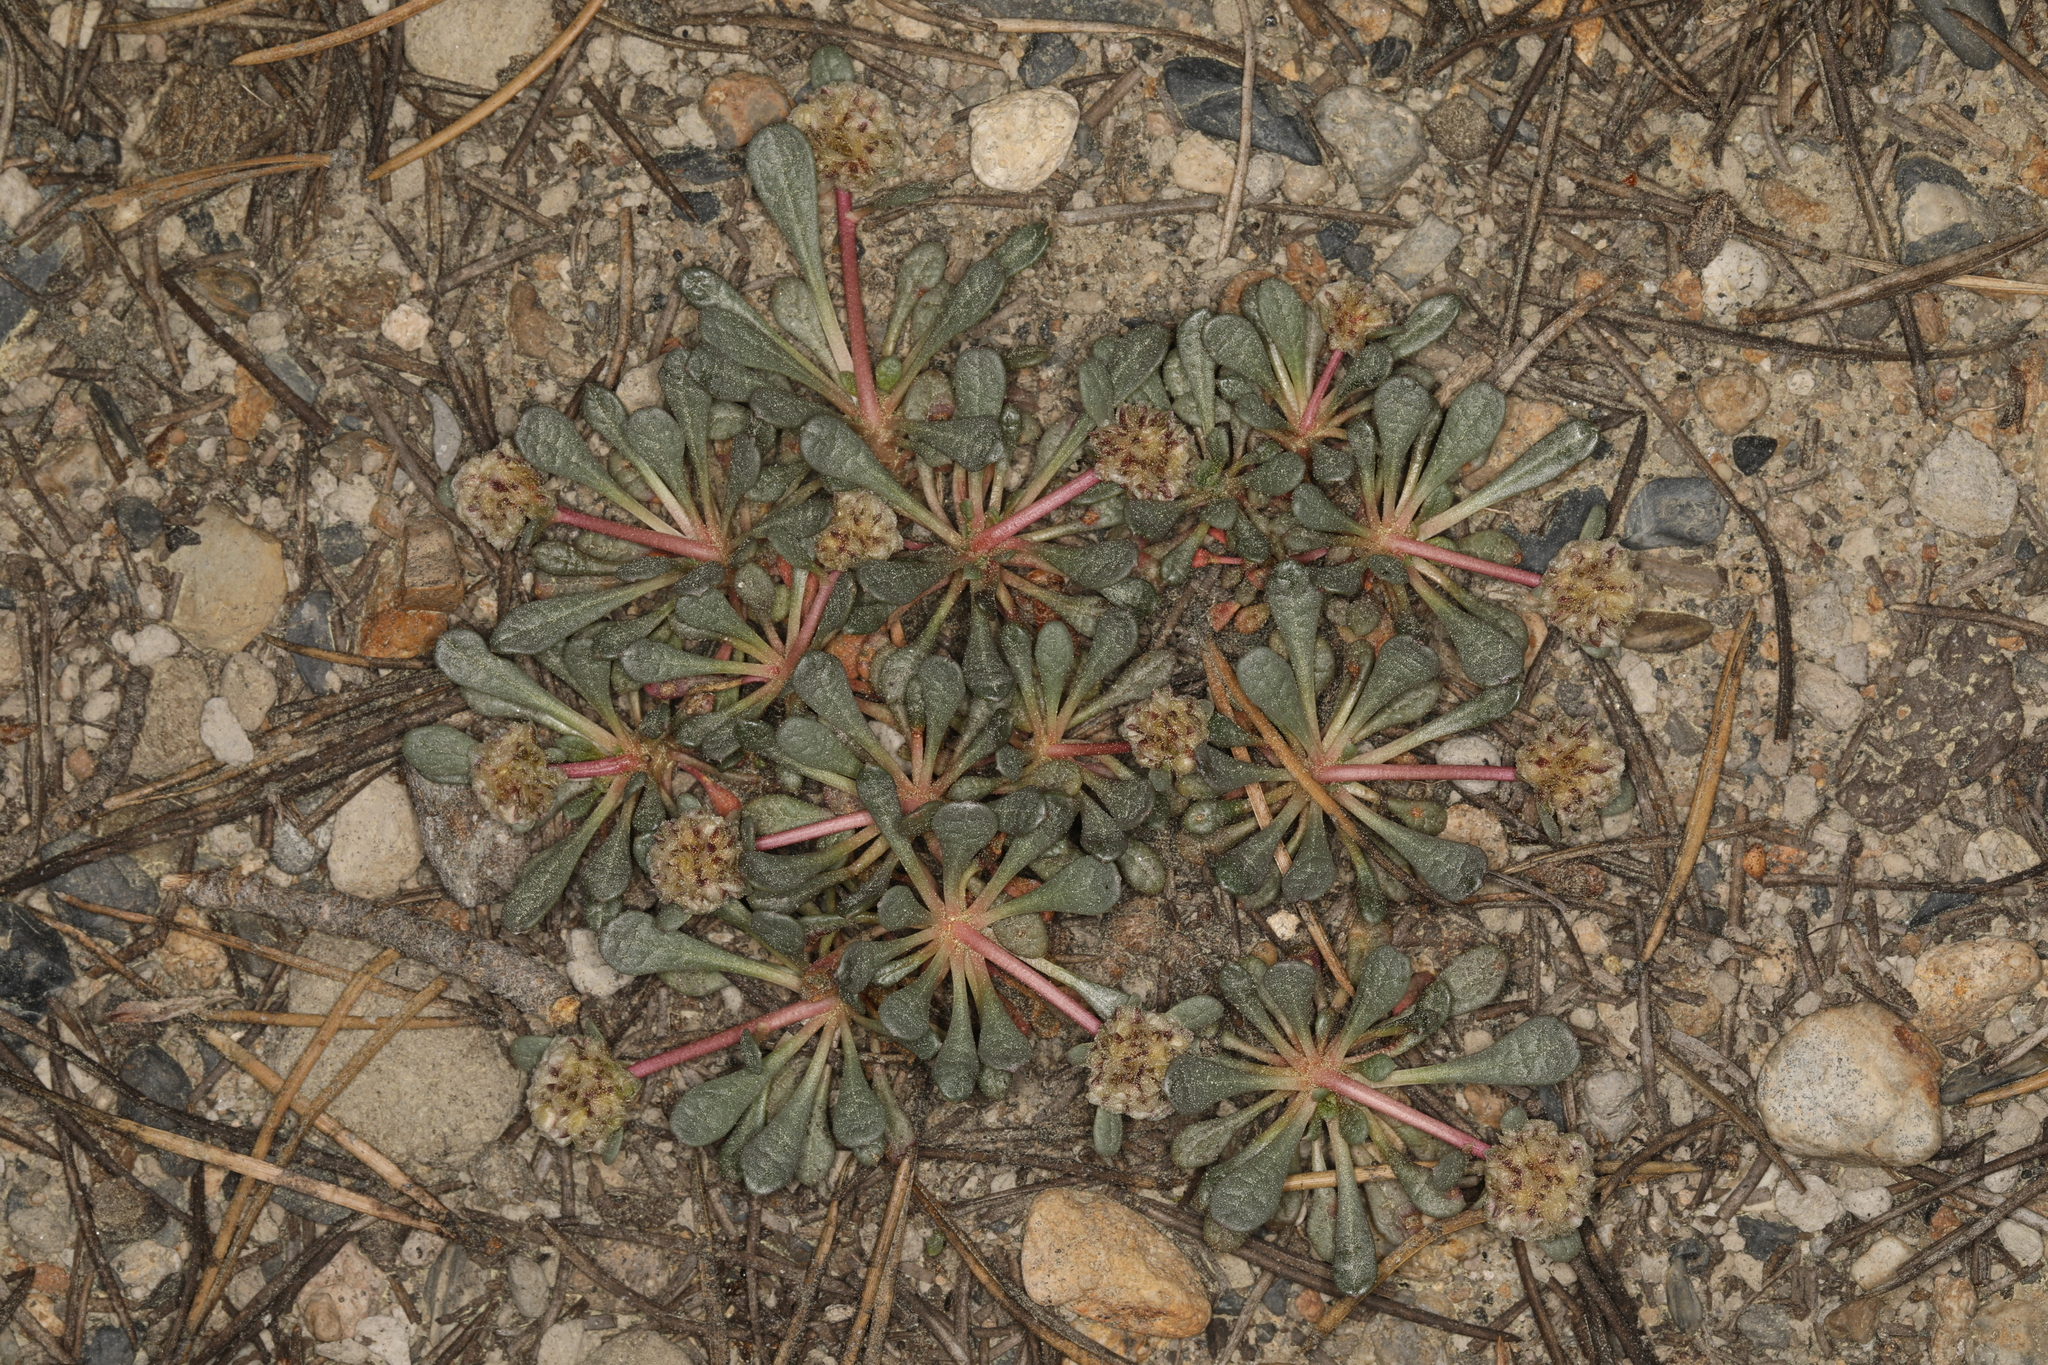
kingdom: Plantae
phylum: Tracheophyta
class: Magnoliopsida
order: Caryophyllales
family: Montiaceae
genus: Calyptridium
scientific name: Calyptridium monospermum
